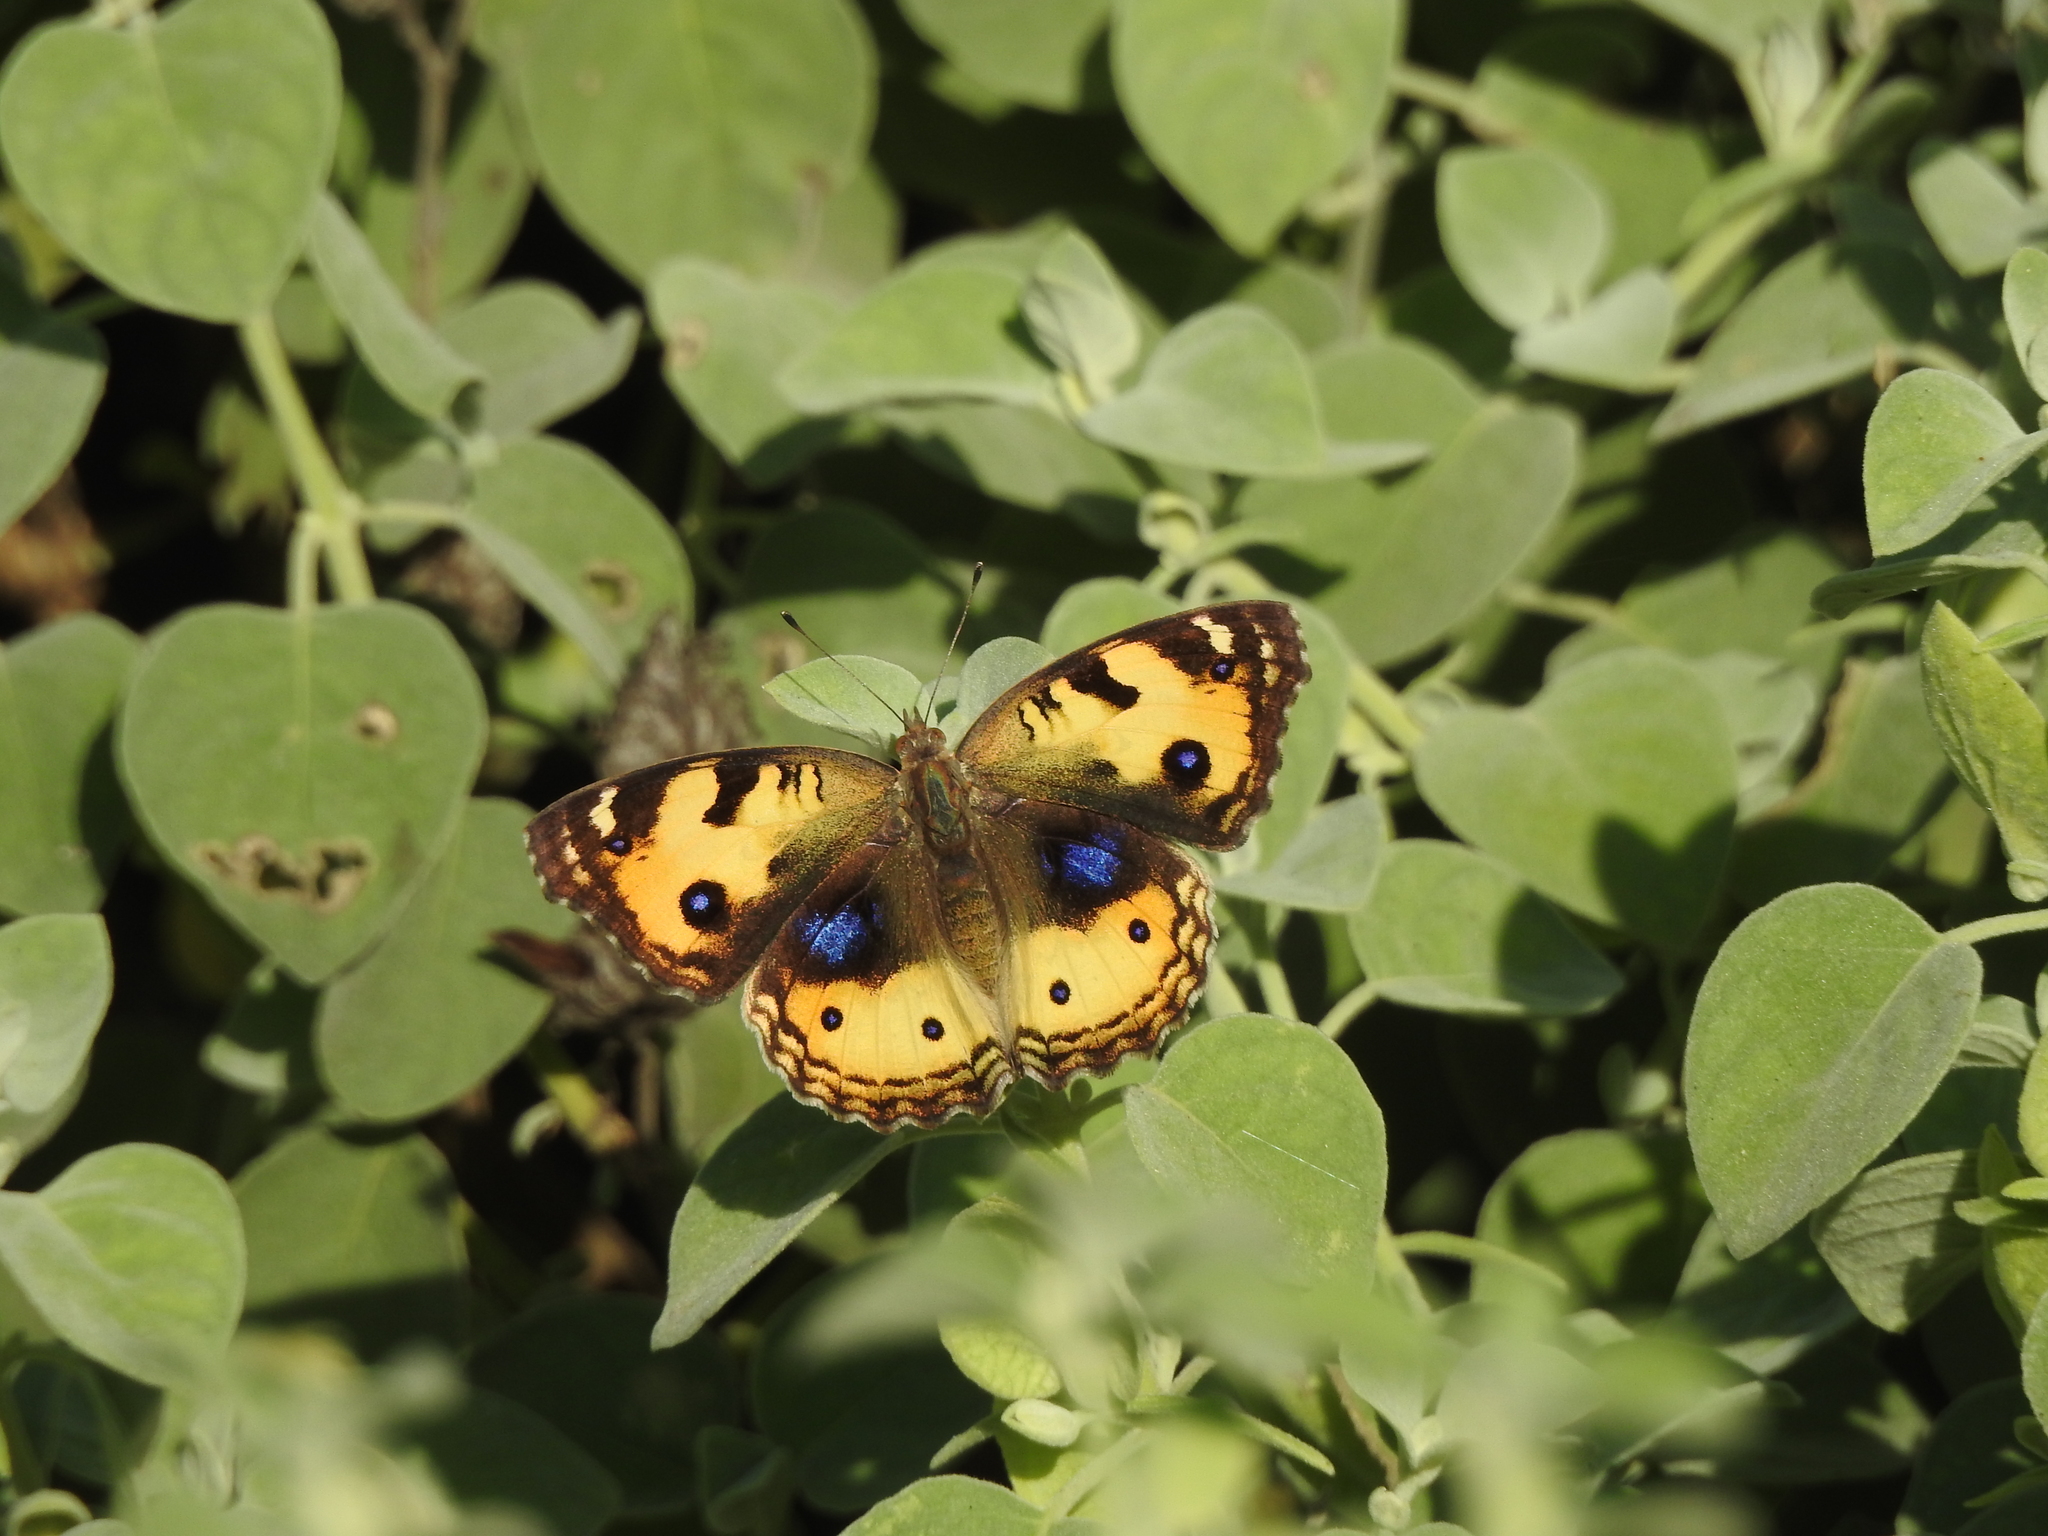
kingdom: Animalia
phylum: Arthropoda
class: Insecta
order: Lepidoptera
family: Nymphalidae
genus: Junonia
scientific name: Junonia hierta
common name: Yellow pansy
